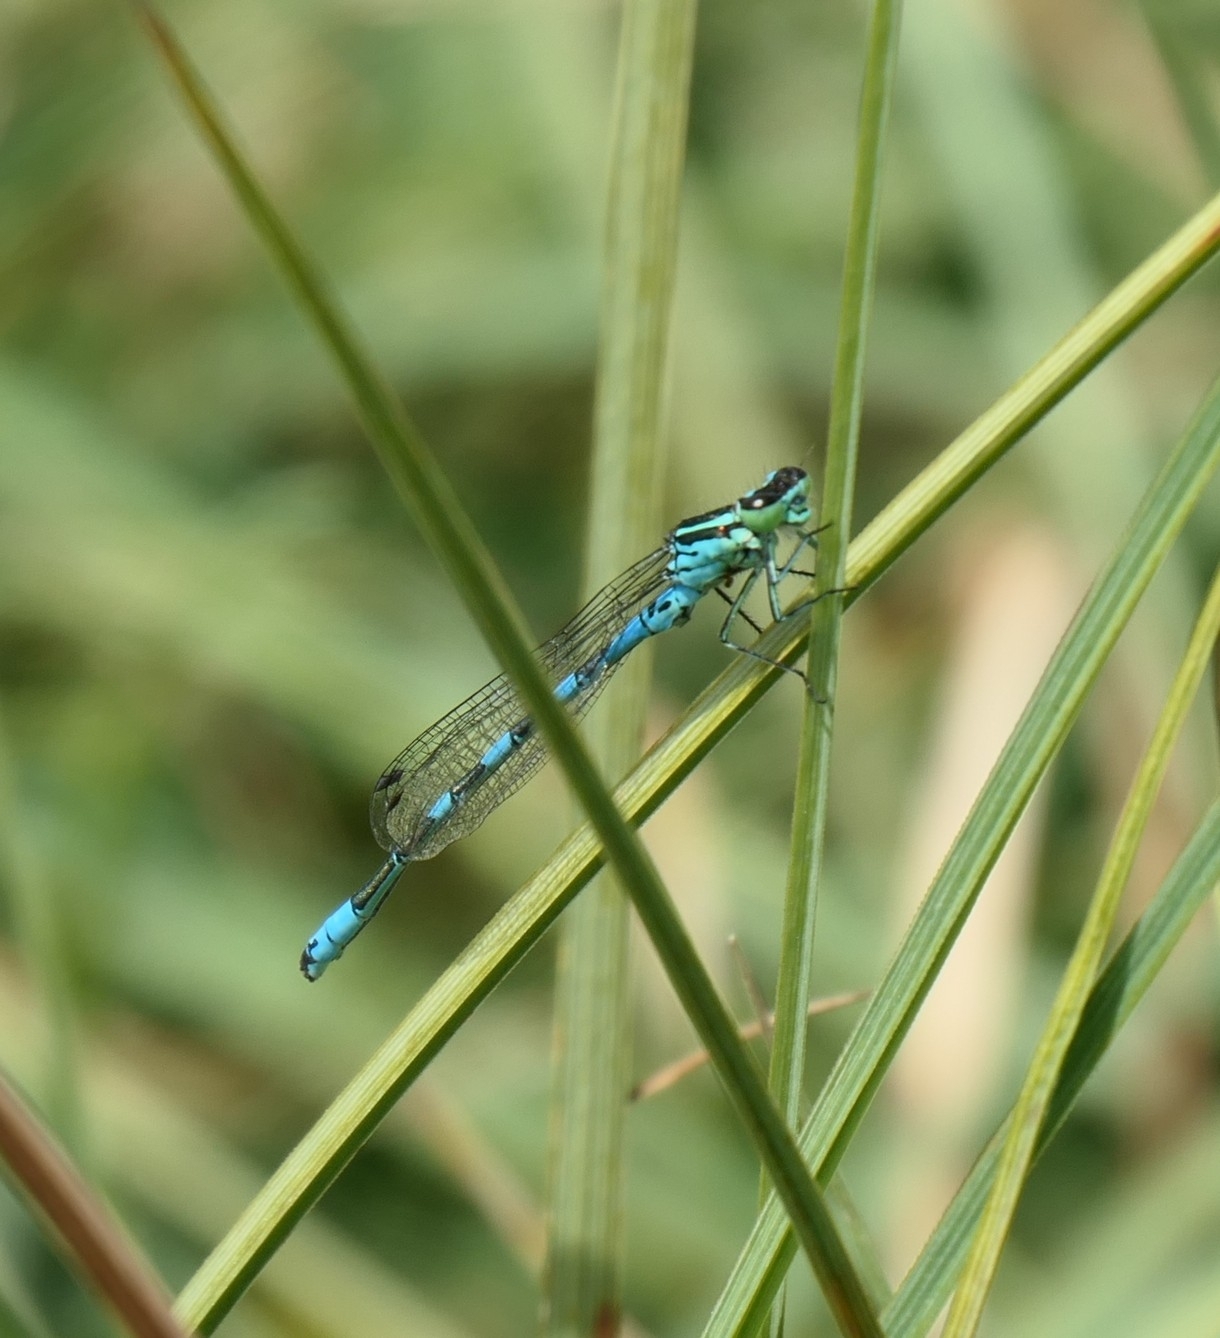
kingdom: Animalia
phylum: Arthropoda
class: Insecta
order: Odonata
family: Coenagrionidae
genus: Coenagrion
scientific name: Coenagrion hastulatum
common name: Spearhead bluet
